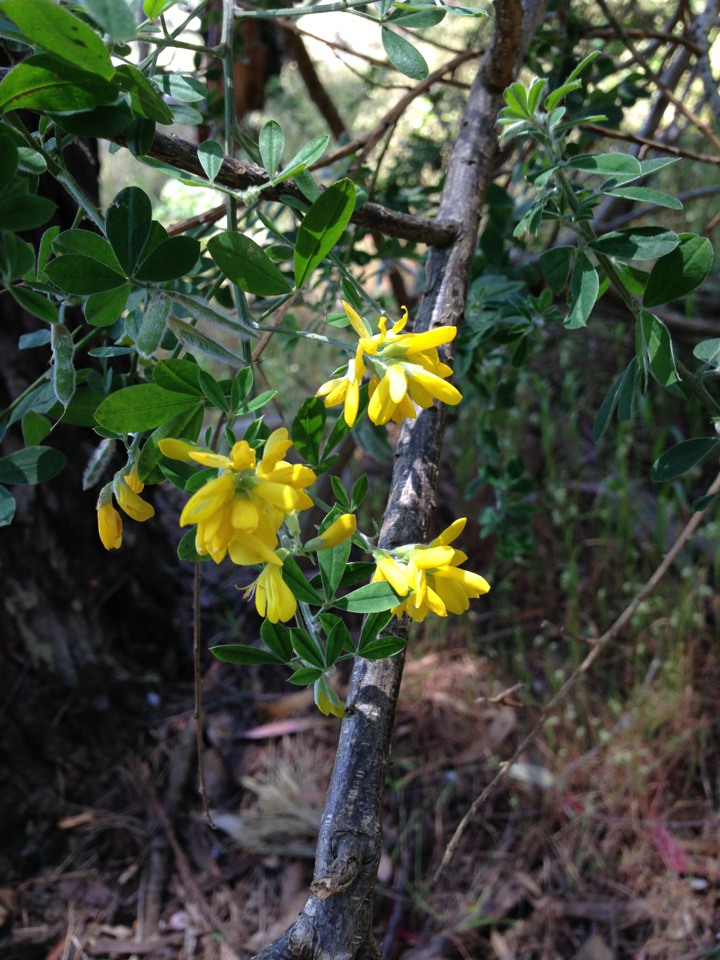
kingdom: Plantae
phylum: Tracheophyta
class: Magnoliopsida
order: Fabales
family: Fabaceae
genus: Genista
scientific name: Genista monspessulana
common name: Montpellier broom
